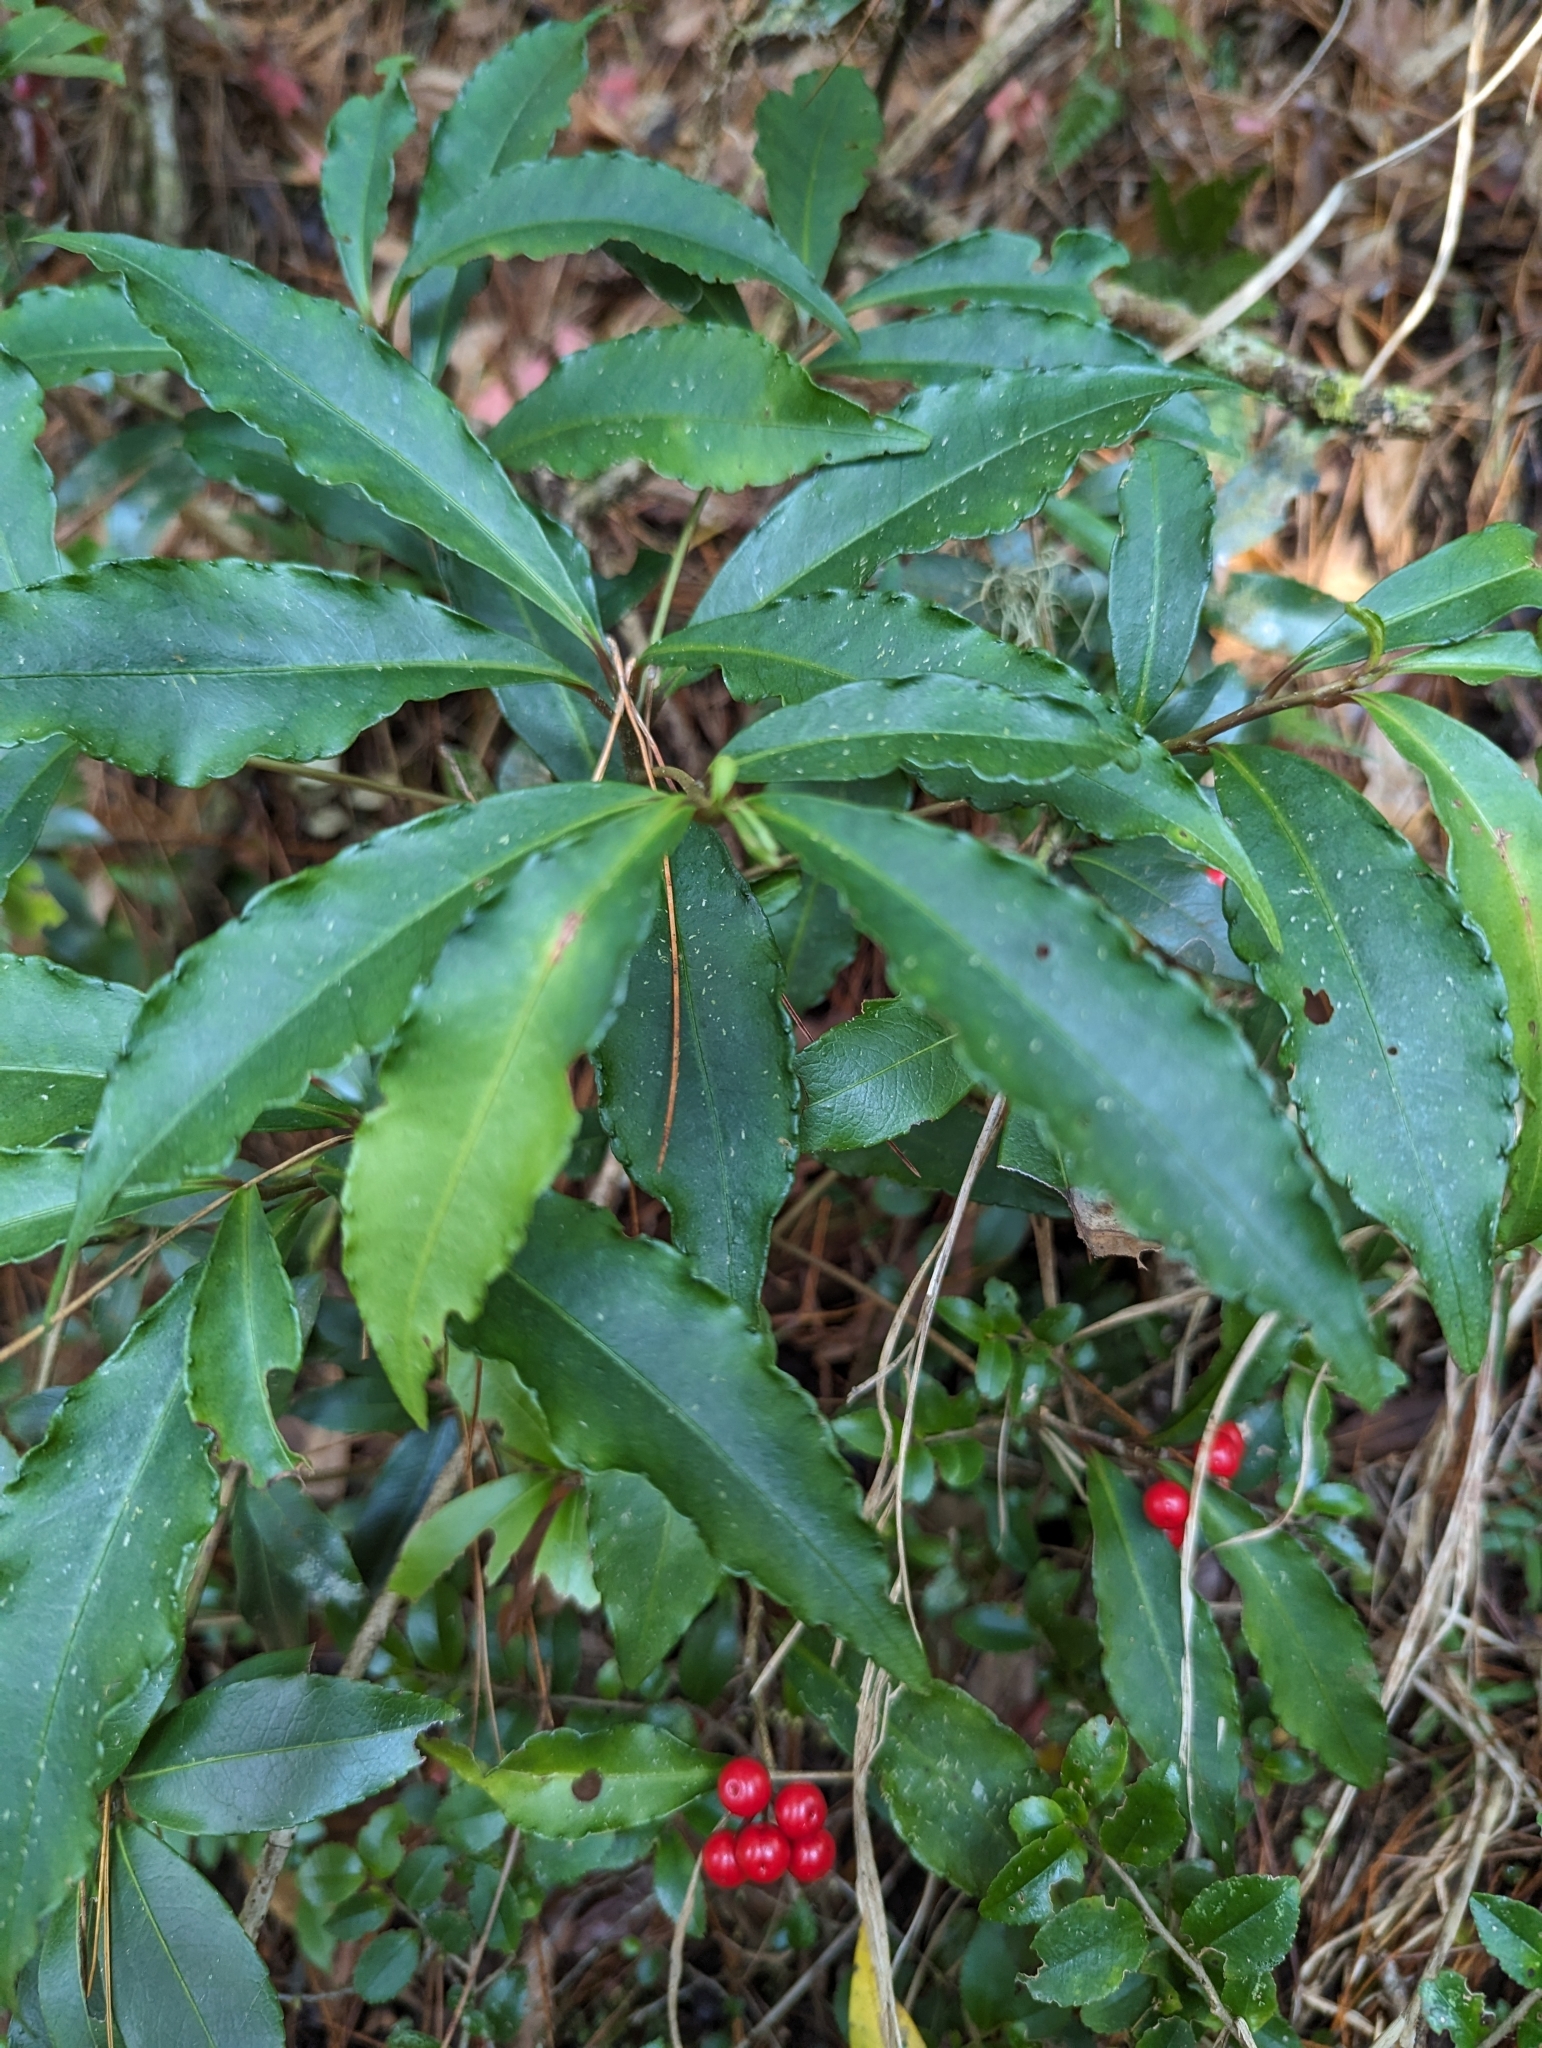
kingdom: Plantae
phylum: Tracheophyta
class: Magnoliopsida
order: Ericales
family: Primulaceae
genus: Ardisia
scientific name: Ardisia crenata
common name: Hen's eyes
